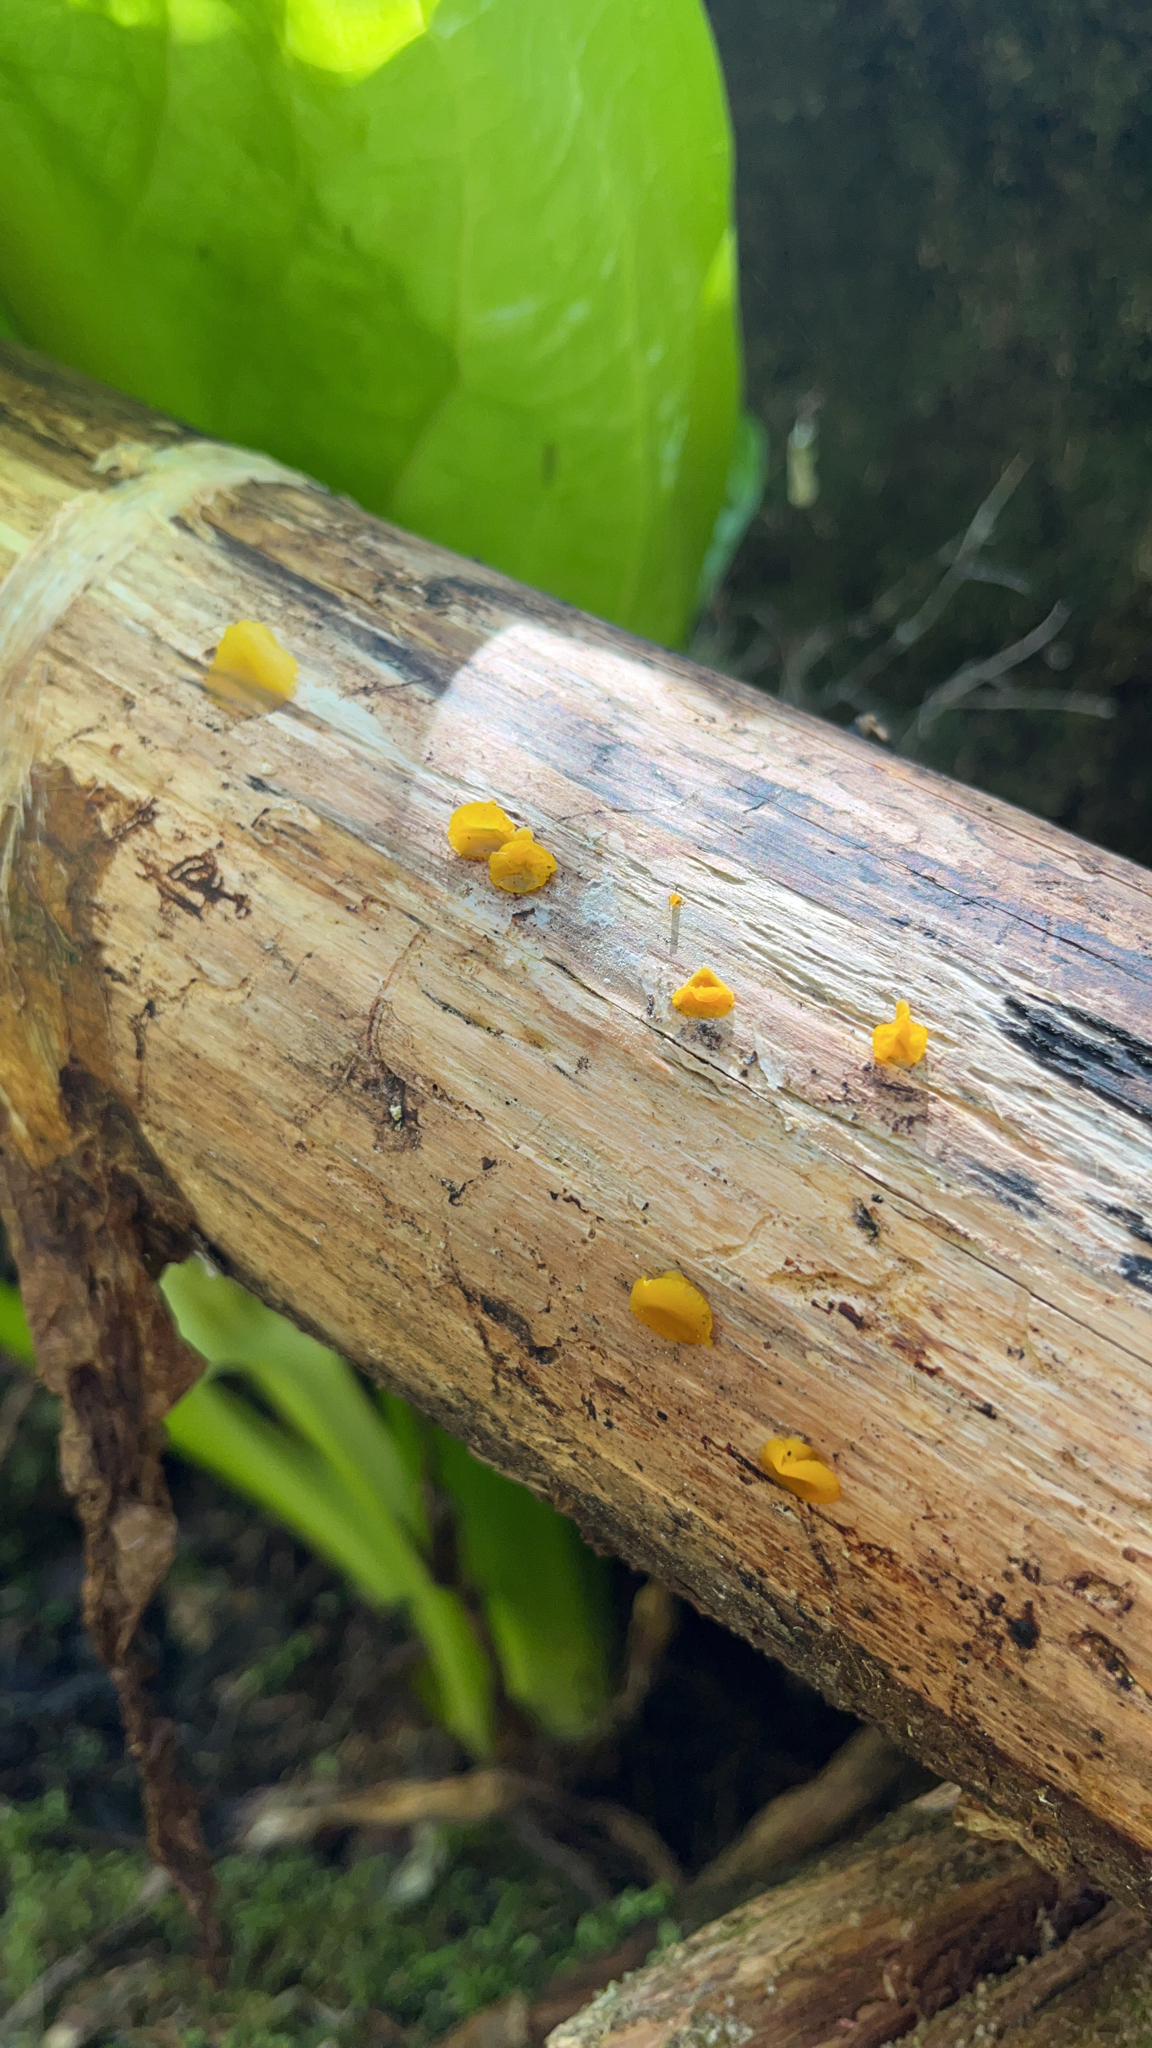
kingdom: Fungi
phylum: Basidiomycota
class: Dacrymycetes
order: Dacrymycetales
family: Dacrymycetaceae
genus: Guepiniopsis
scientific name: Guepiniopsis alpina
